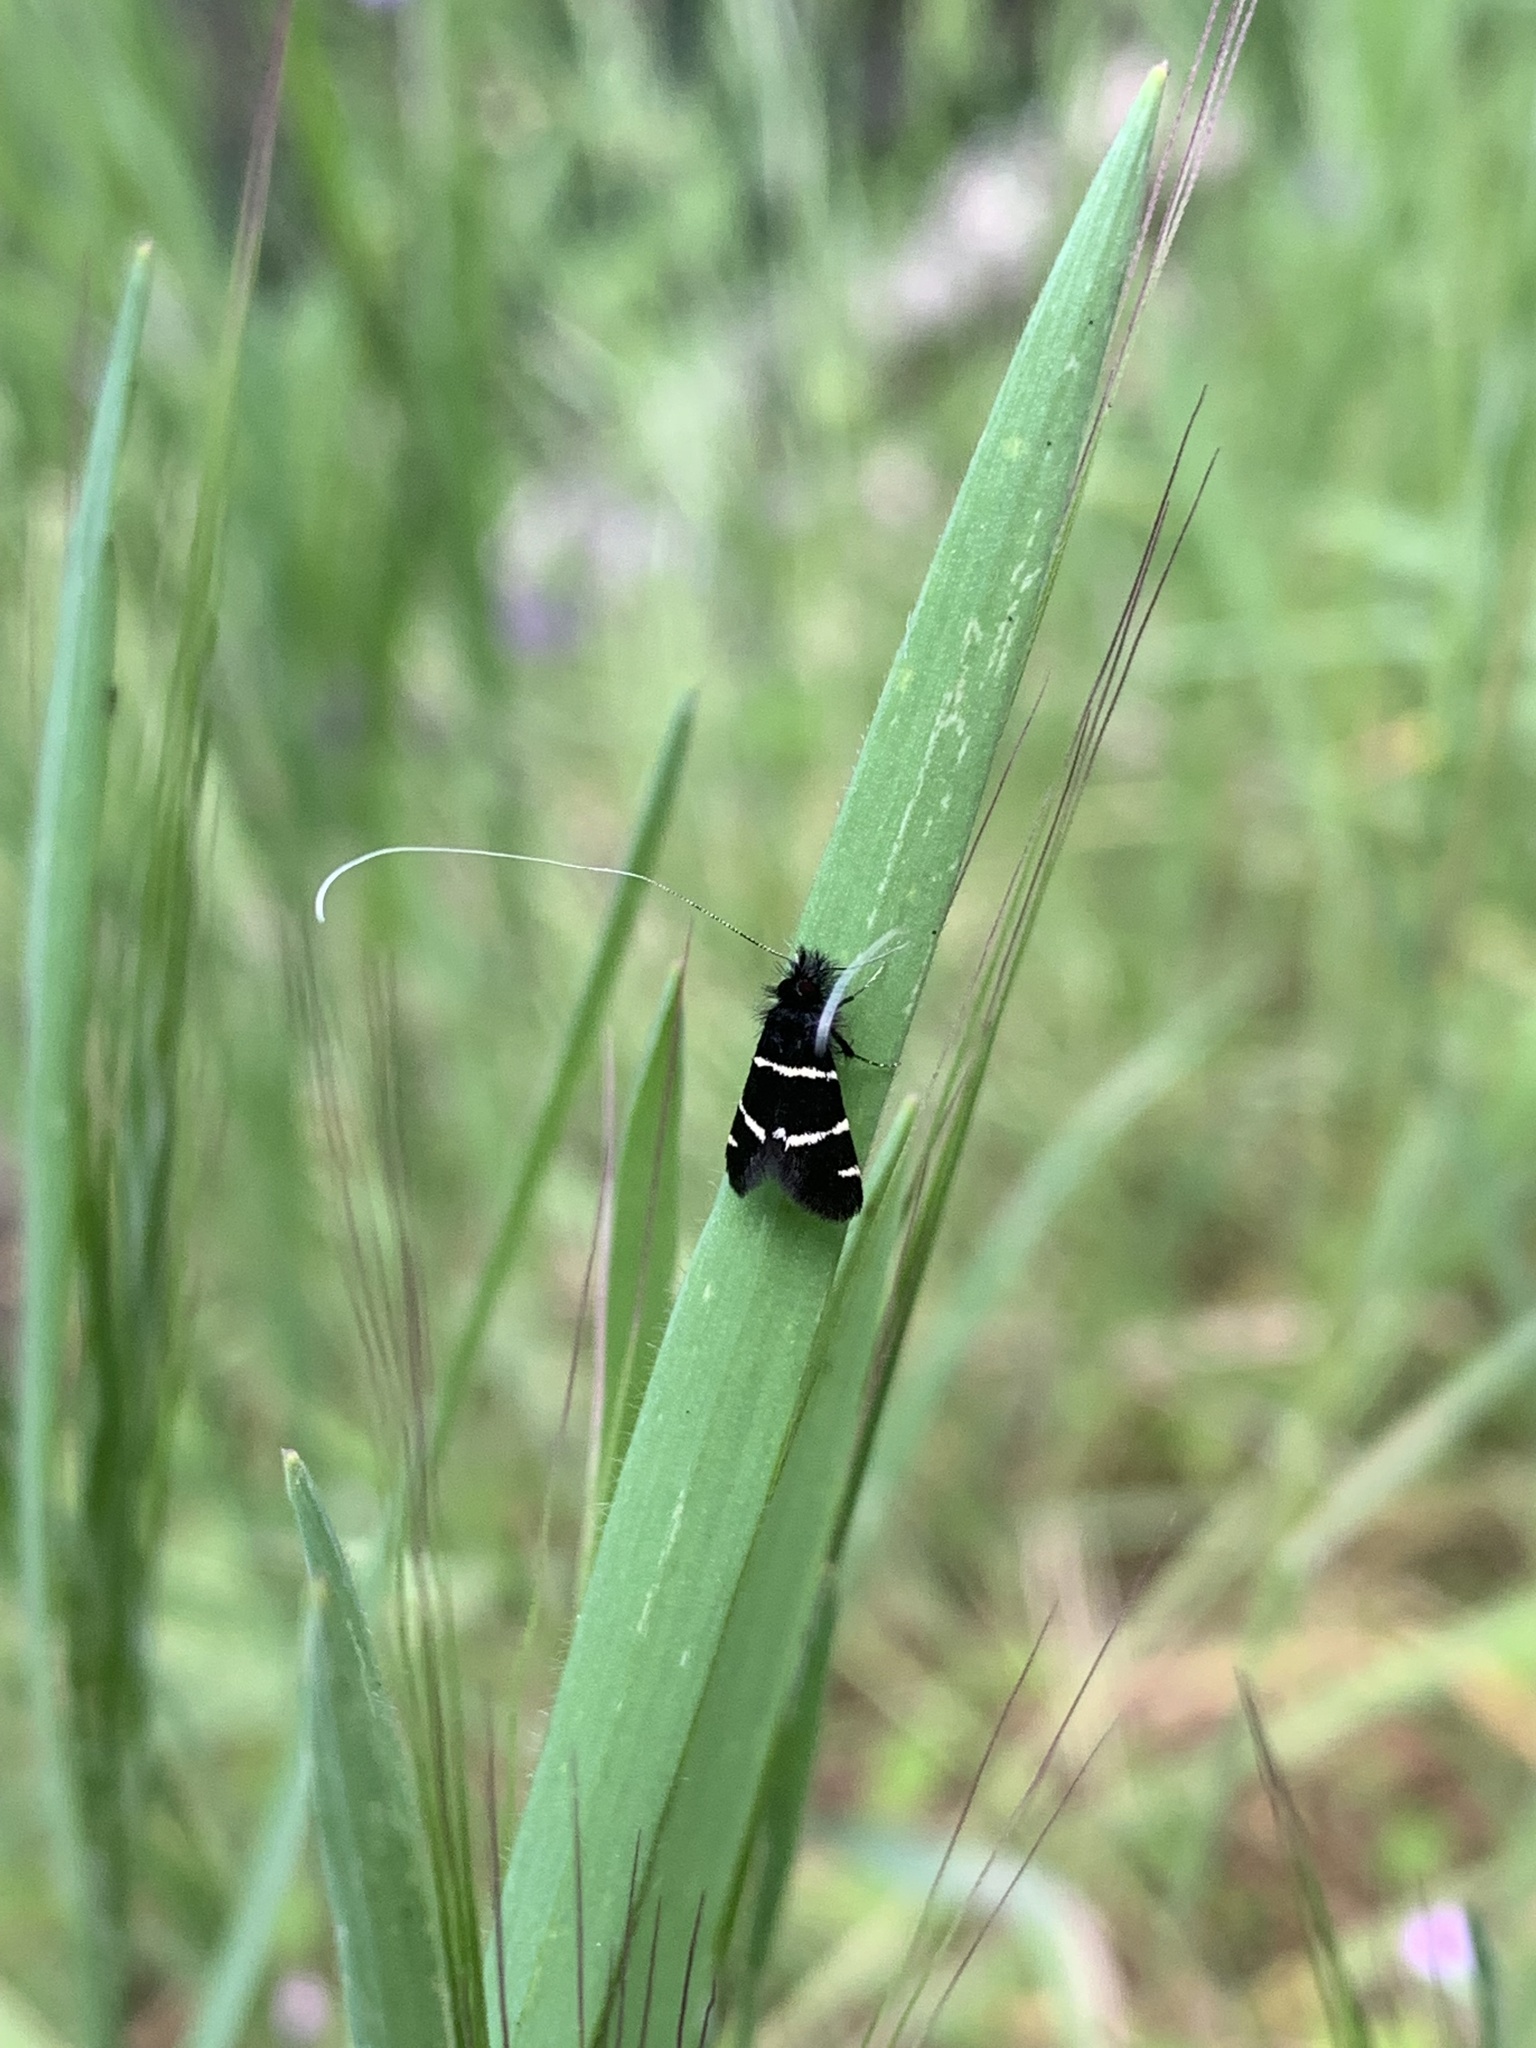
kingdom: Animalia
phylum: Arthropoda
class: Insecta
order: Lepidoptera
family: Adelidae
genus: Adela
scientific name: Adela trigrapha
